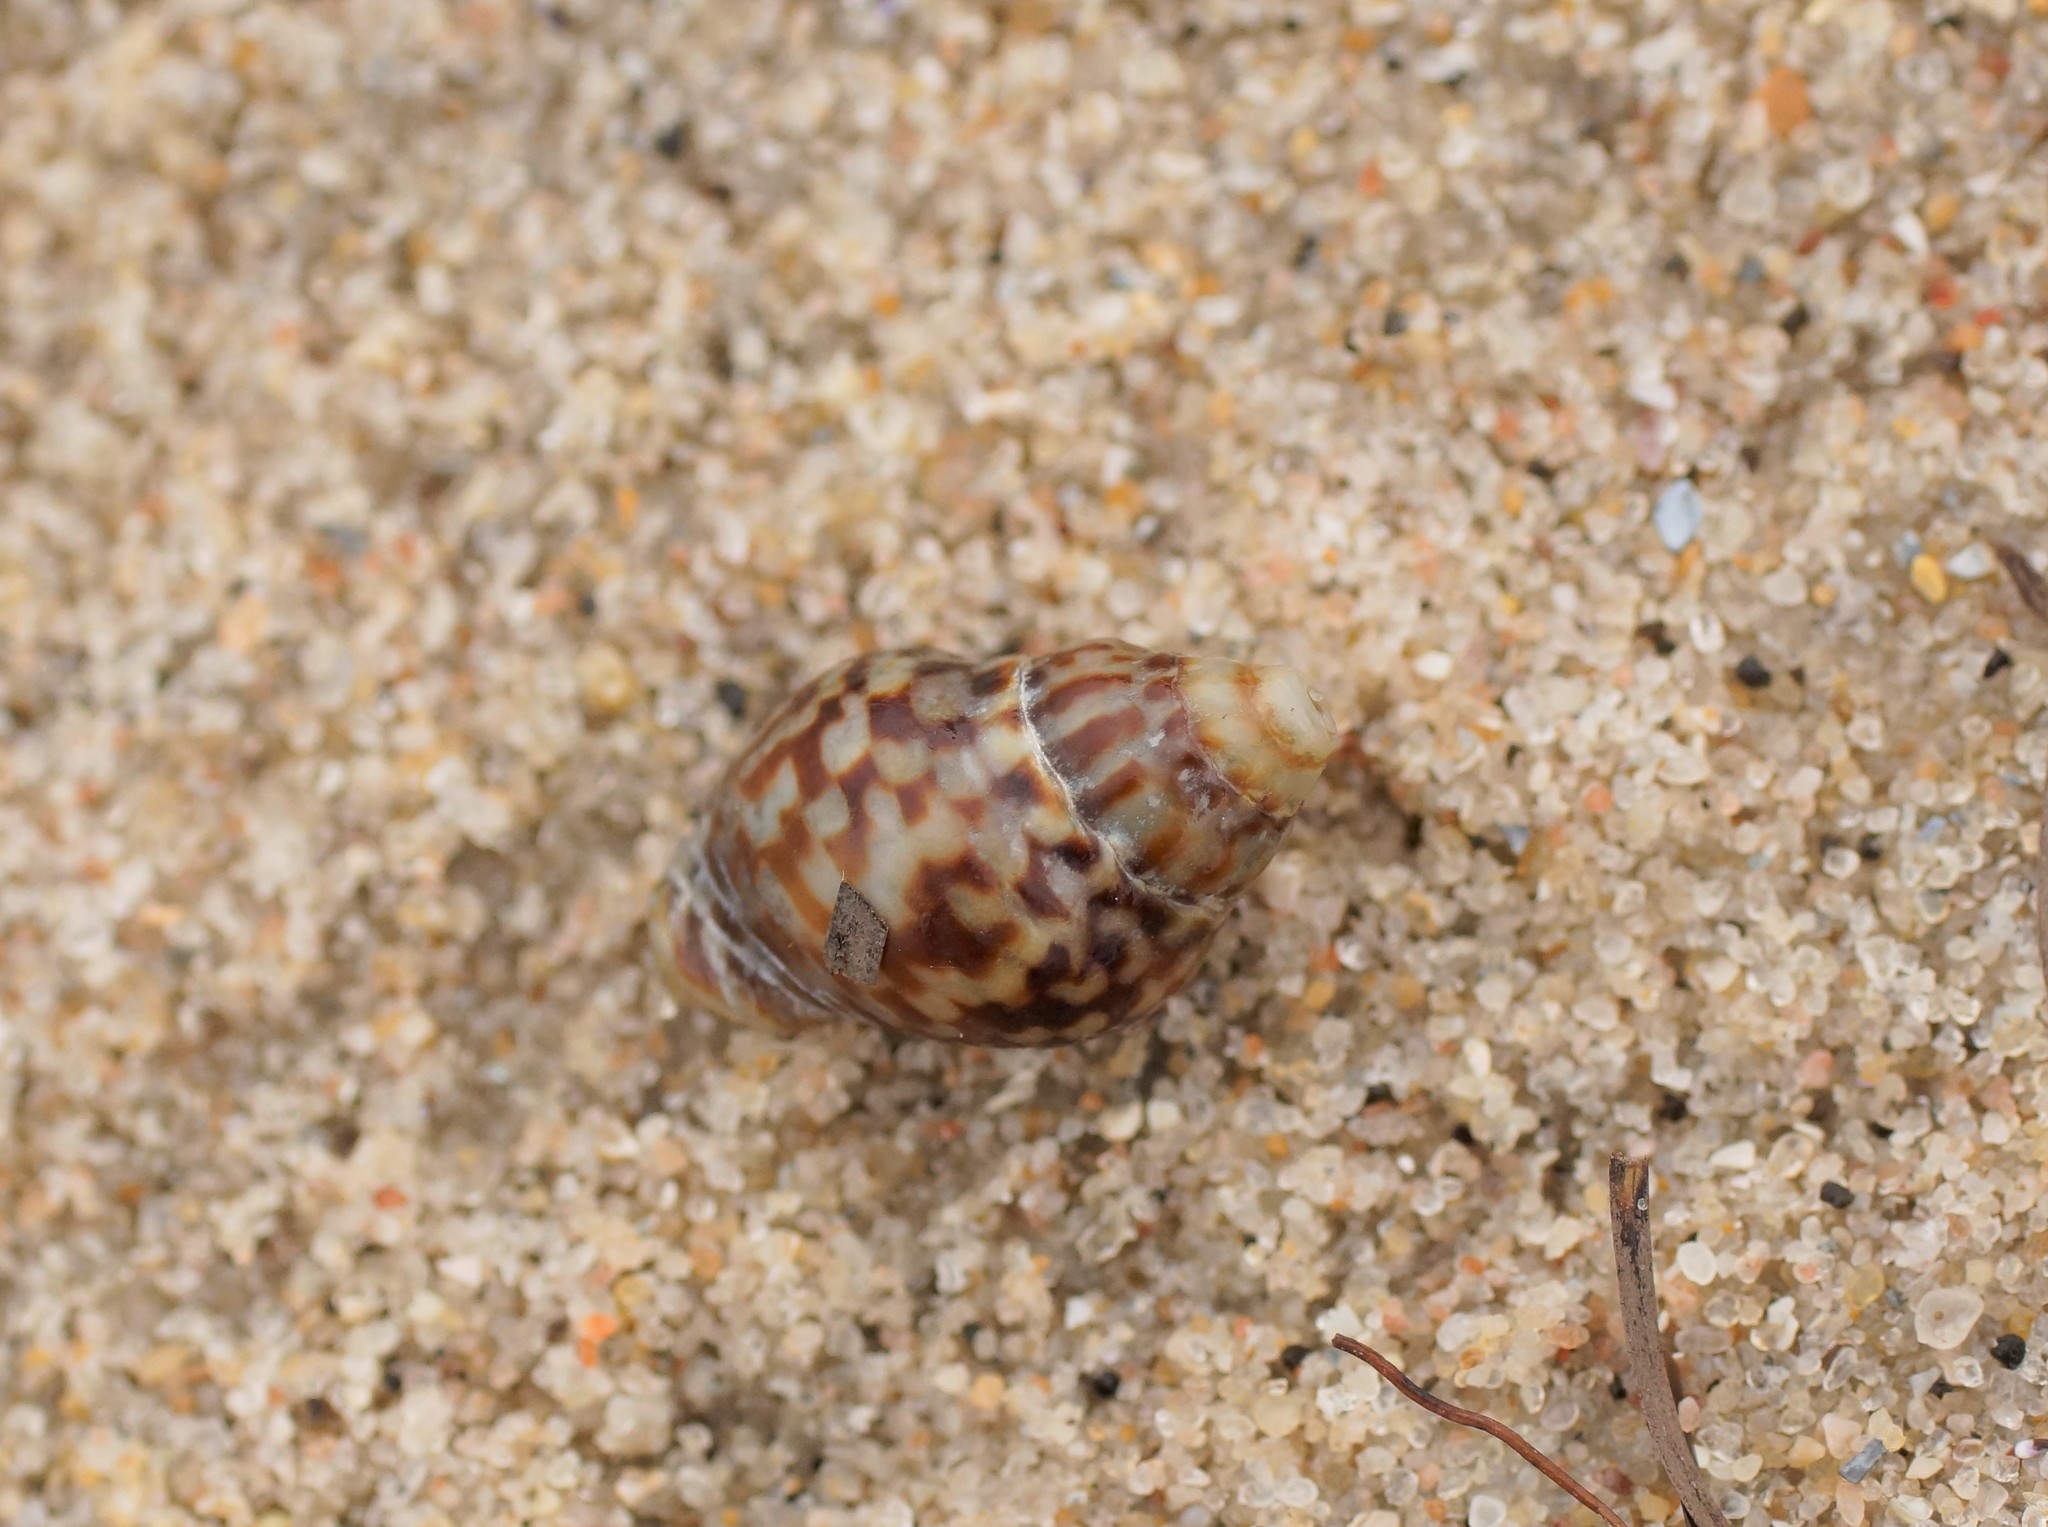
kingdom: Animalia
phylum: Mollusca
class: Gastropoda
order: Neogastropoda
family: Cominellidae
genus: Cominella
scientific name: Cominella lineolata
